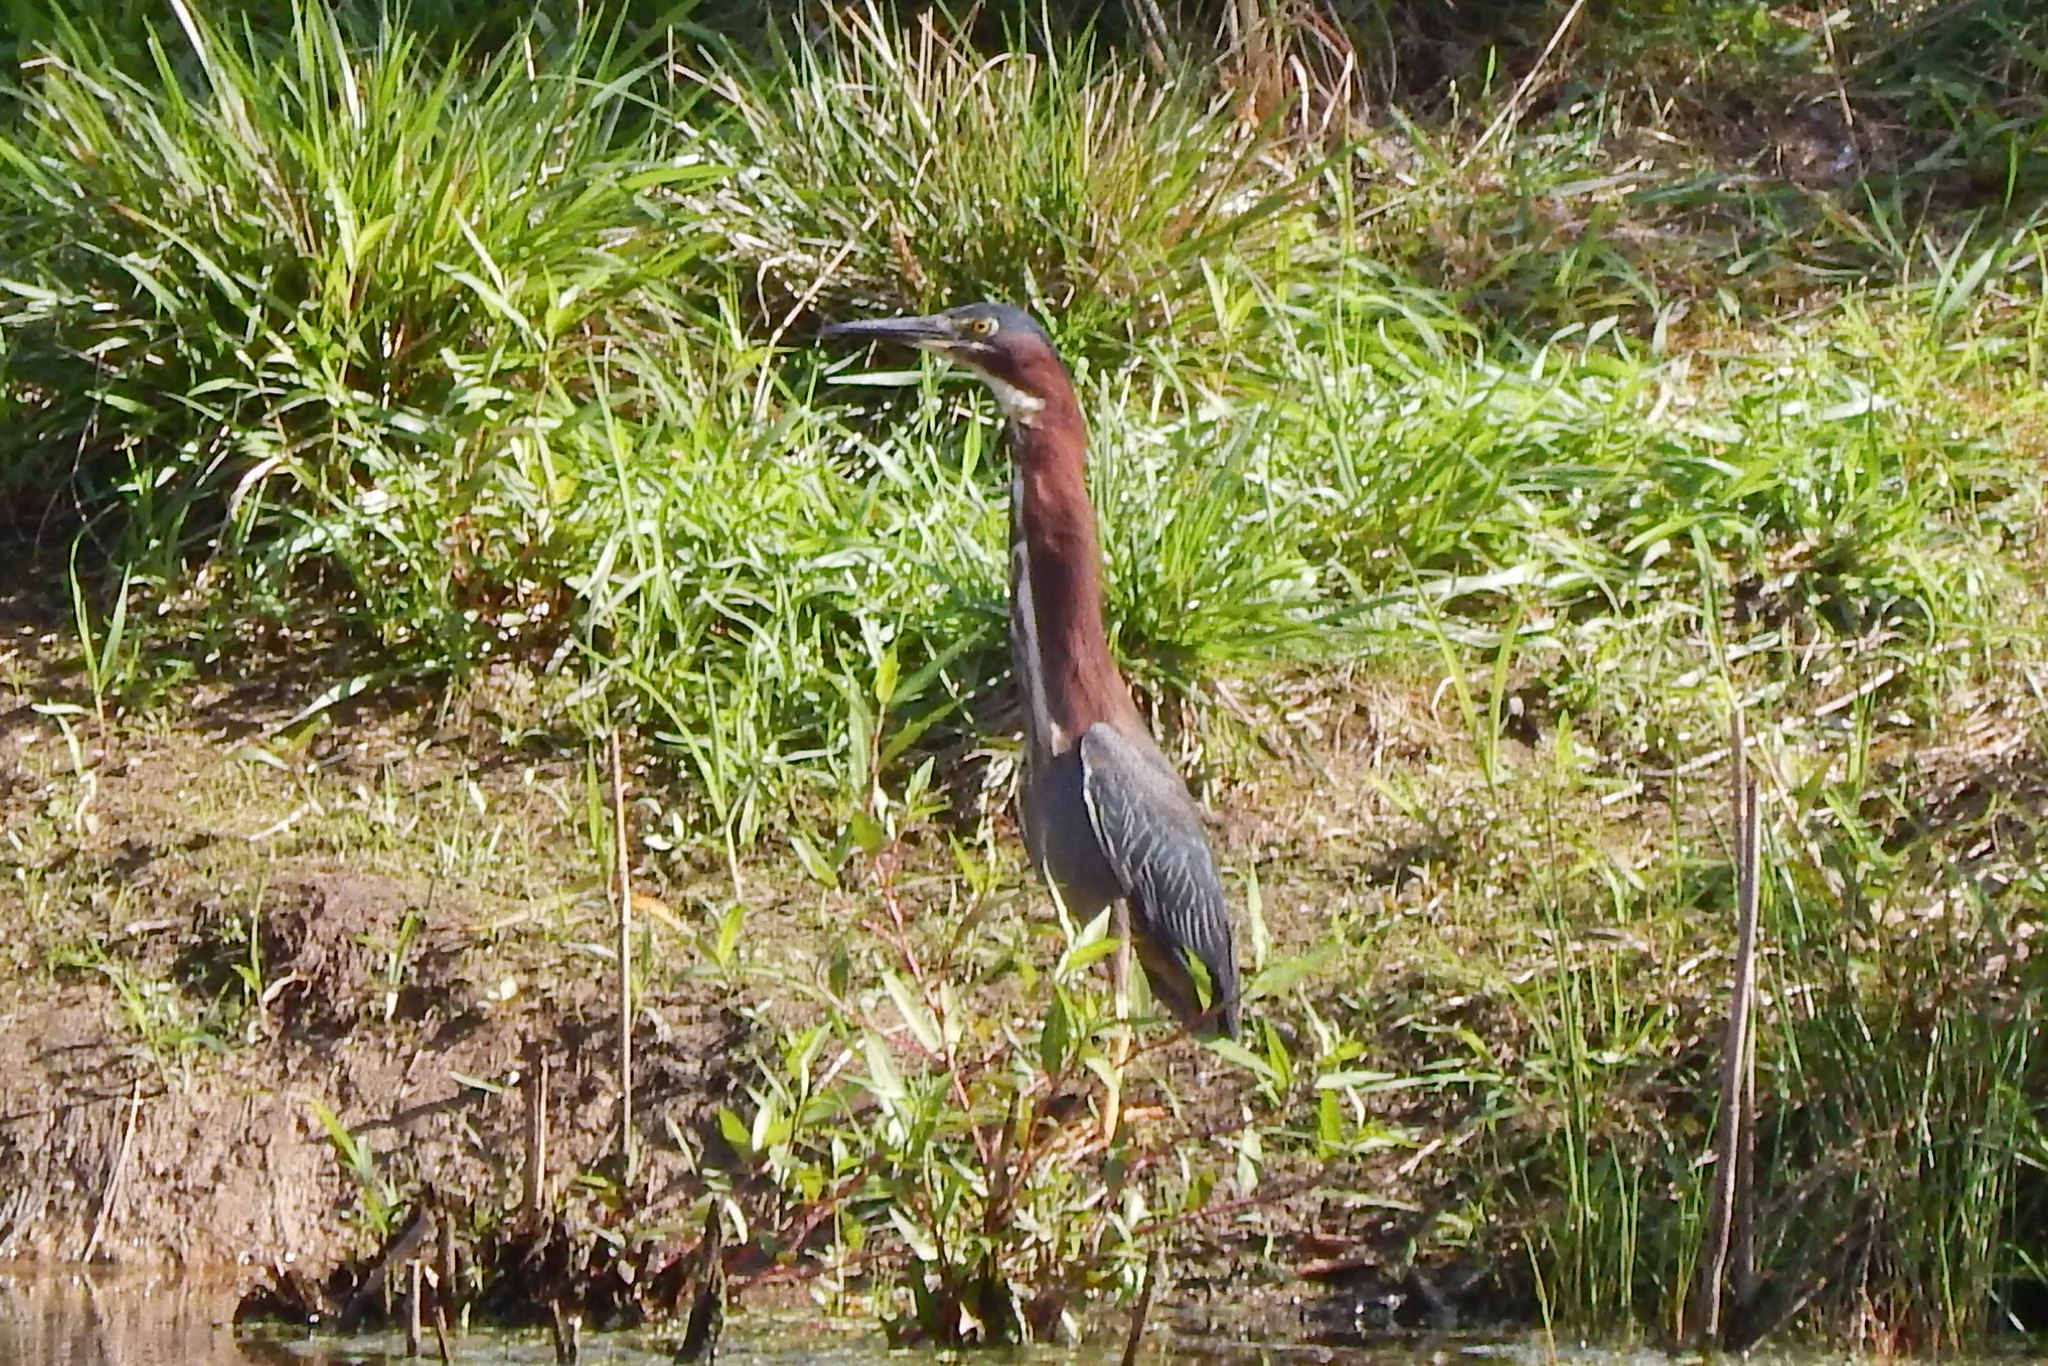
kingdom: Animalia
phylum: Chordata
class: Aves
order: Pelecaniformes
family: Ardeidae
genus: Butorides
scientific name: Butorides virescens
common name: Green heron
